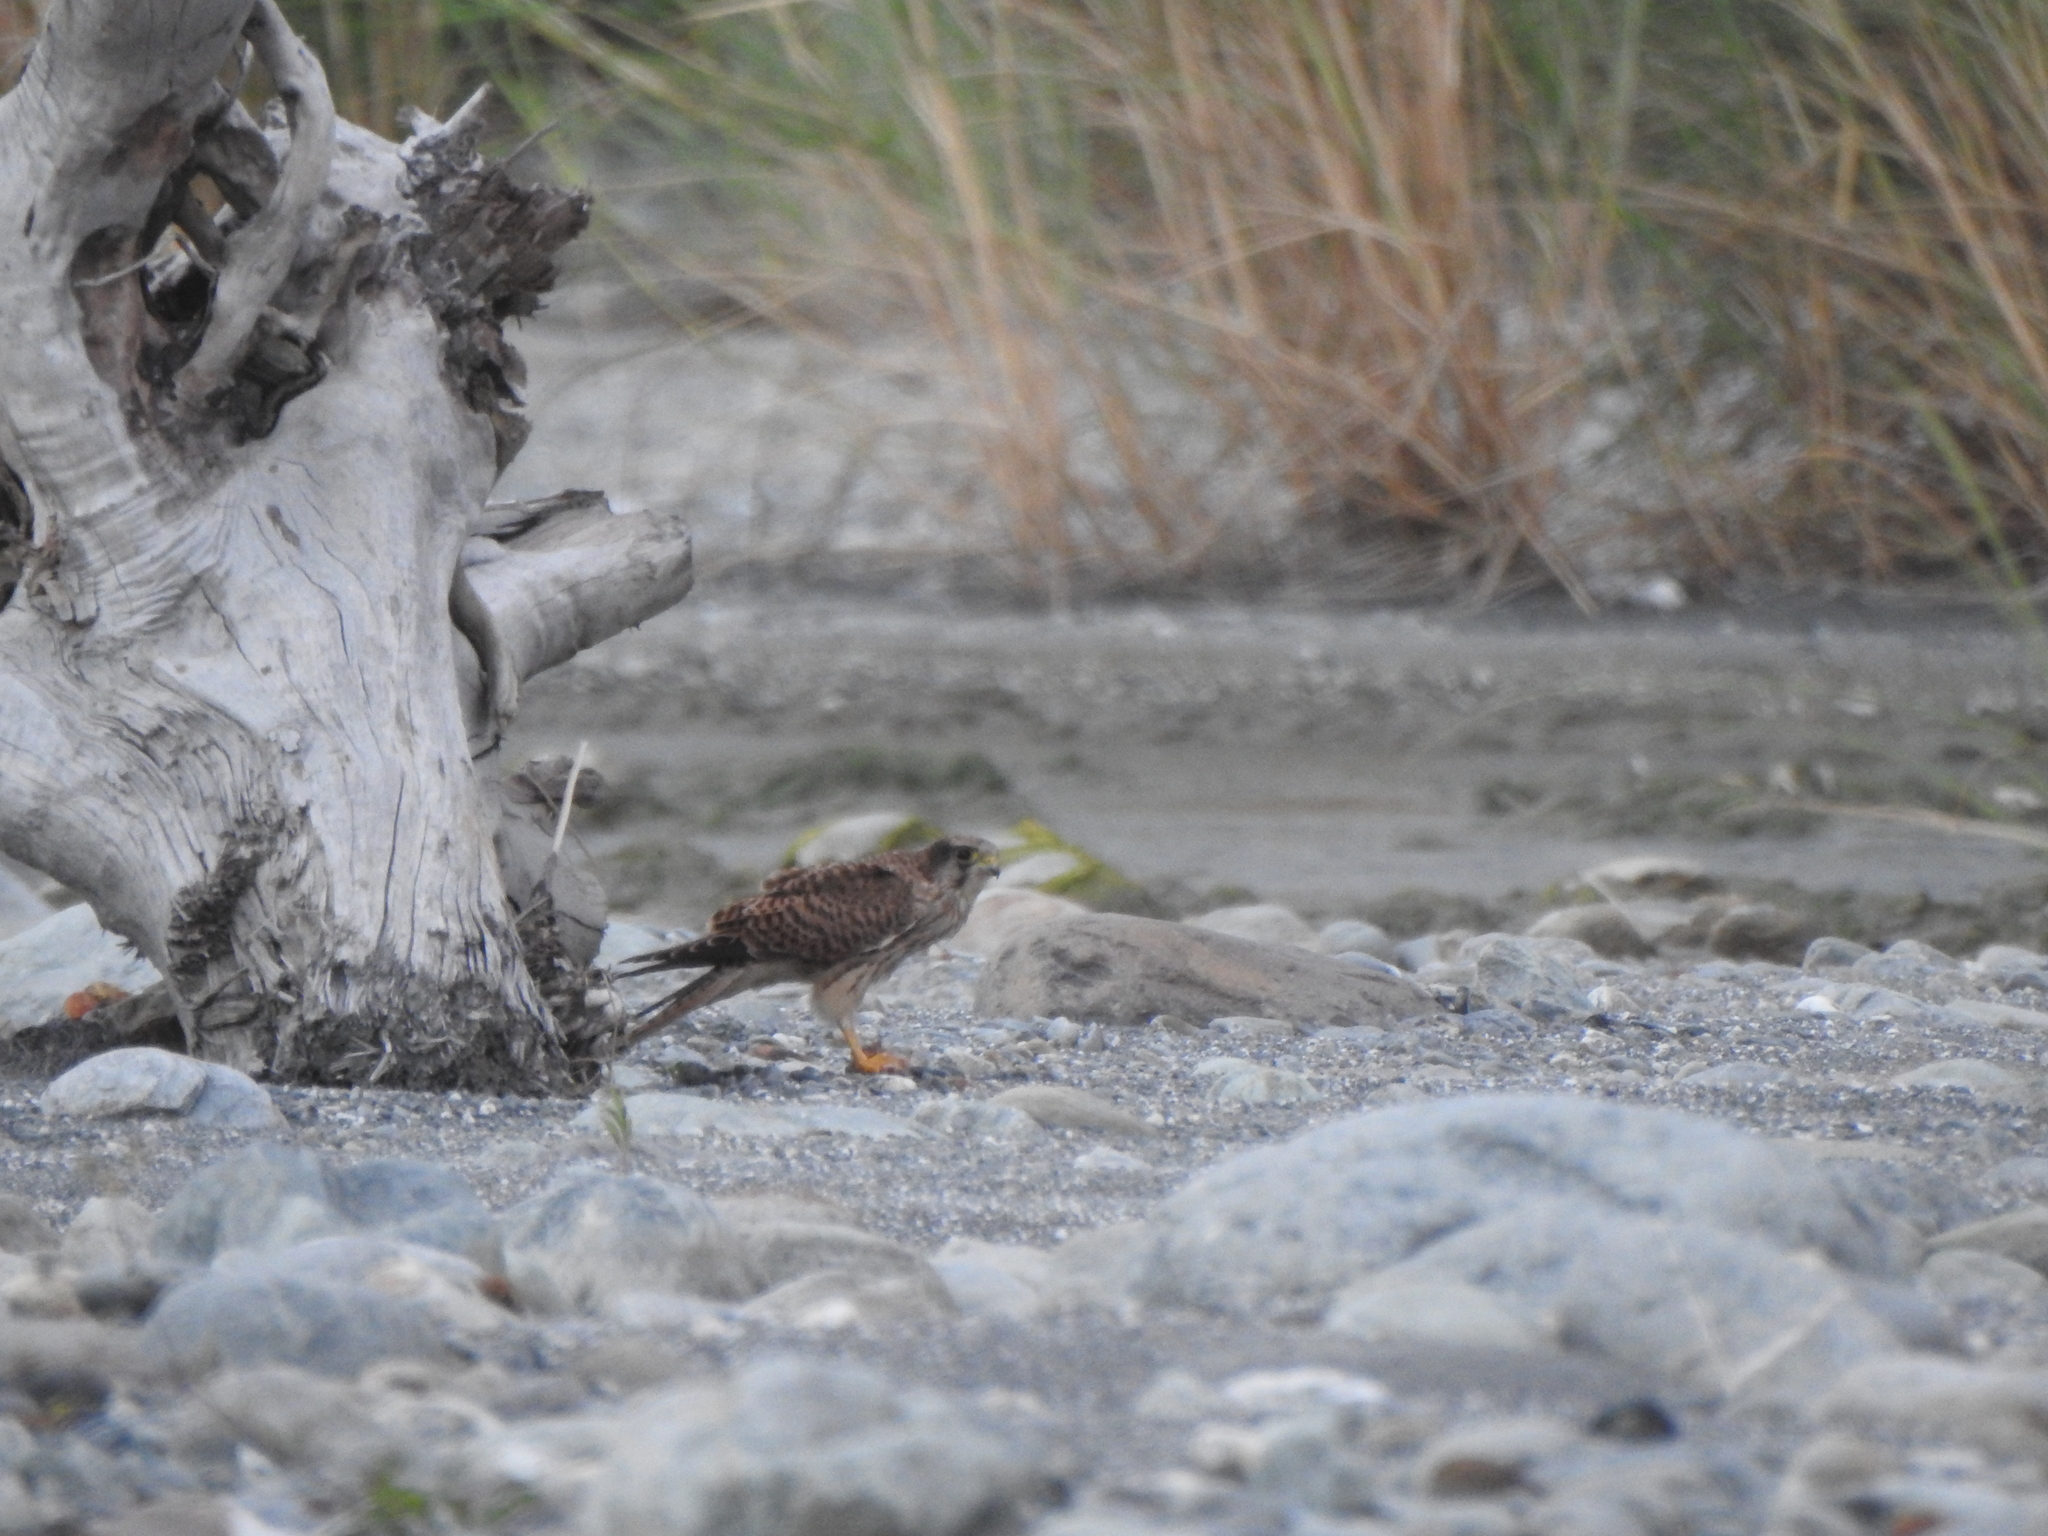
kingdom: Animalia
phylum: Chordata
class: Aves
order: Falconiformes
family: Falconidae
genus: Falco
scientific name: Falco tinnunculus
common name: Common kestrel
